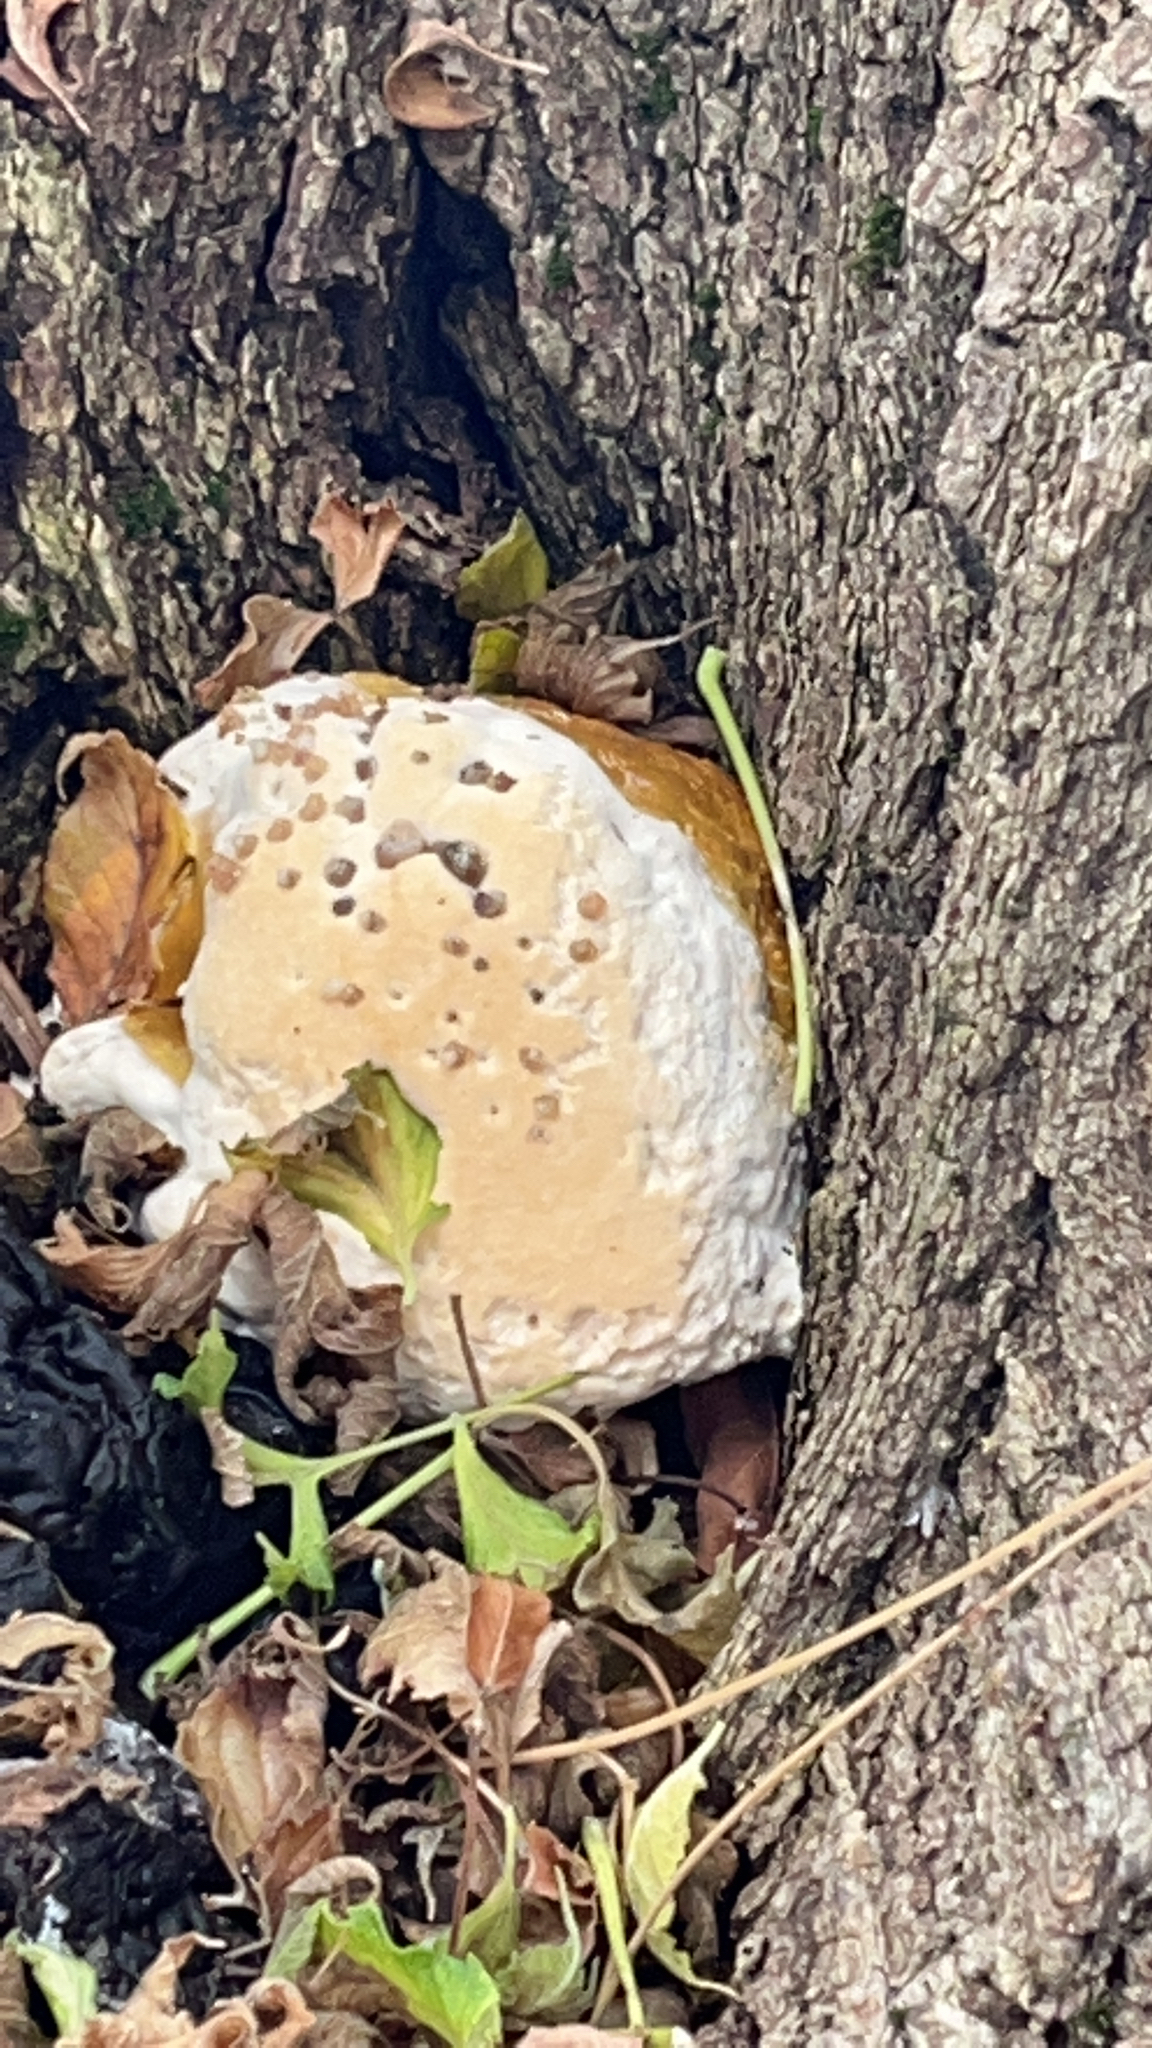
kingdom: Fungi
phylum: Basidiomycota
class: Agaricomycetes
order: Hymenochaetales
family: Hymenochaetaceae
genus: Pseudoinonotus
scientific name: Pseudoinonotus dryadeus
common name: Oak bracket
